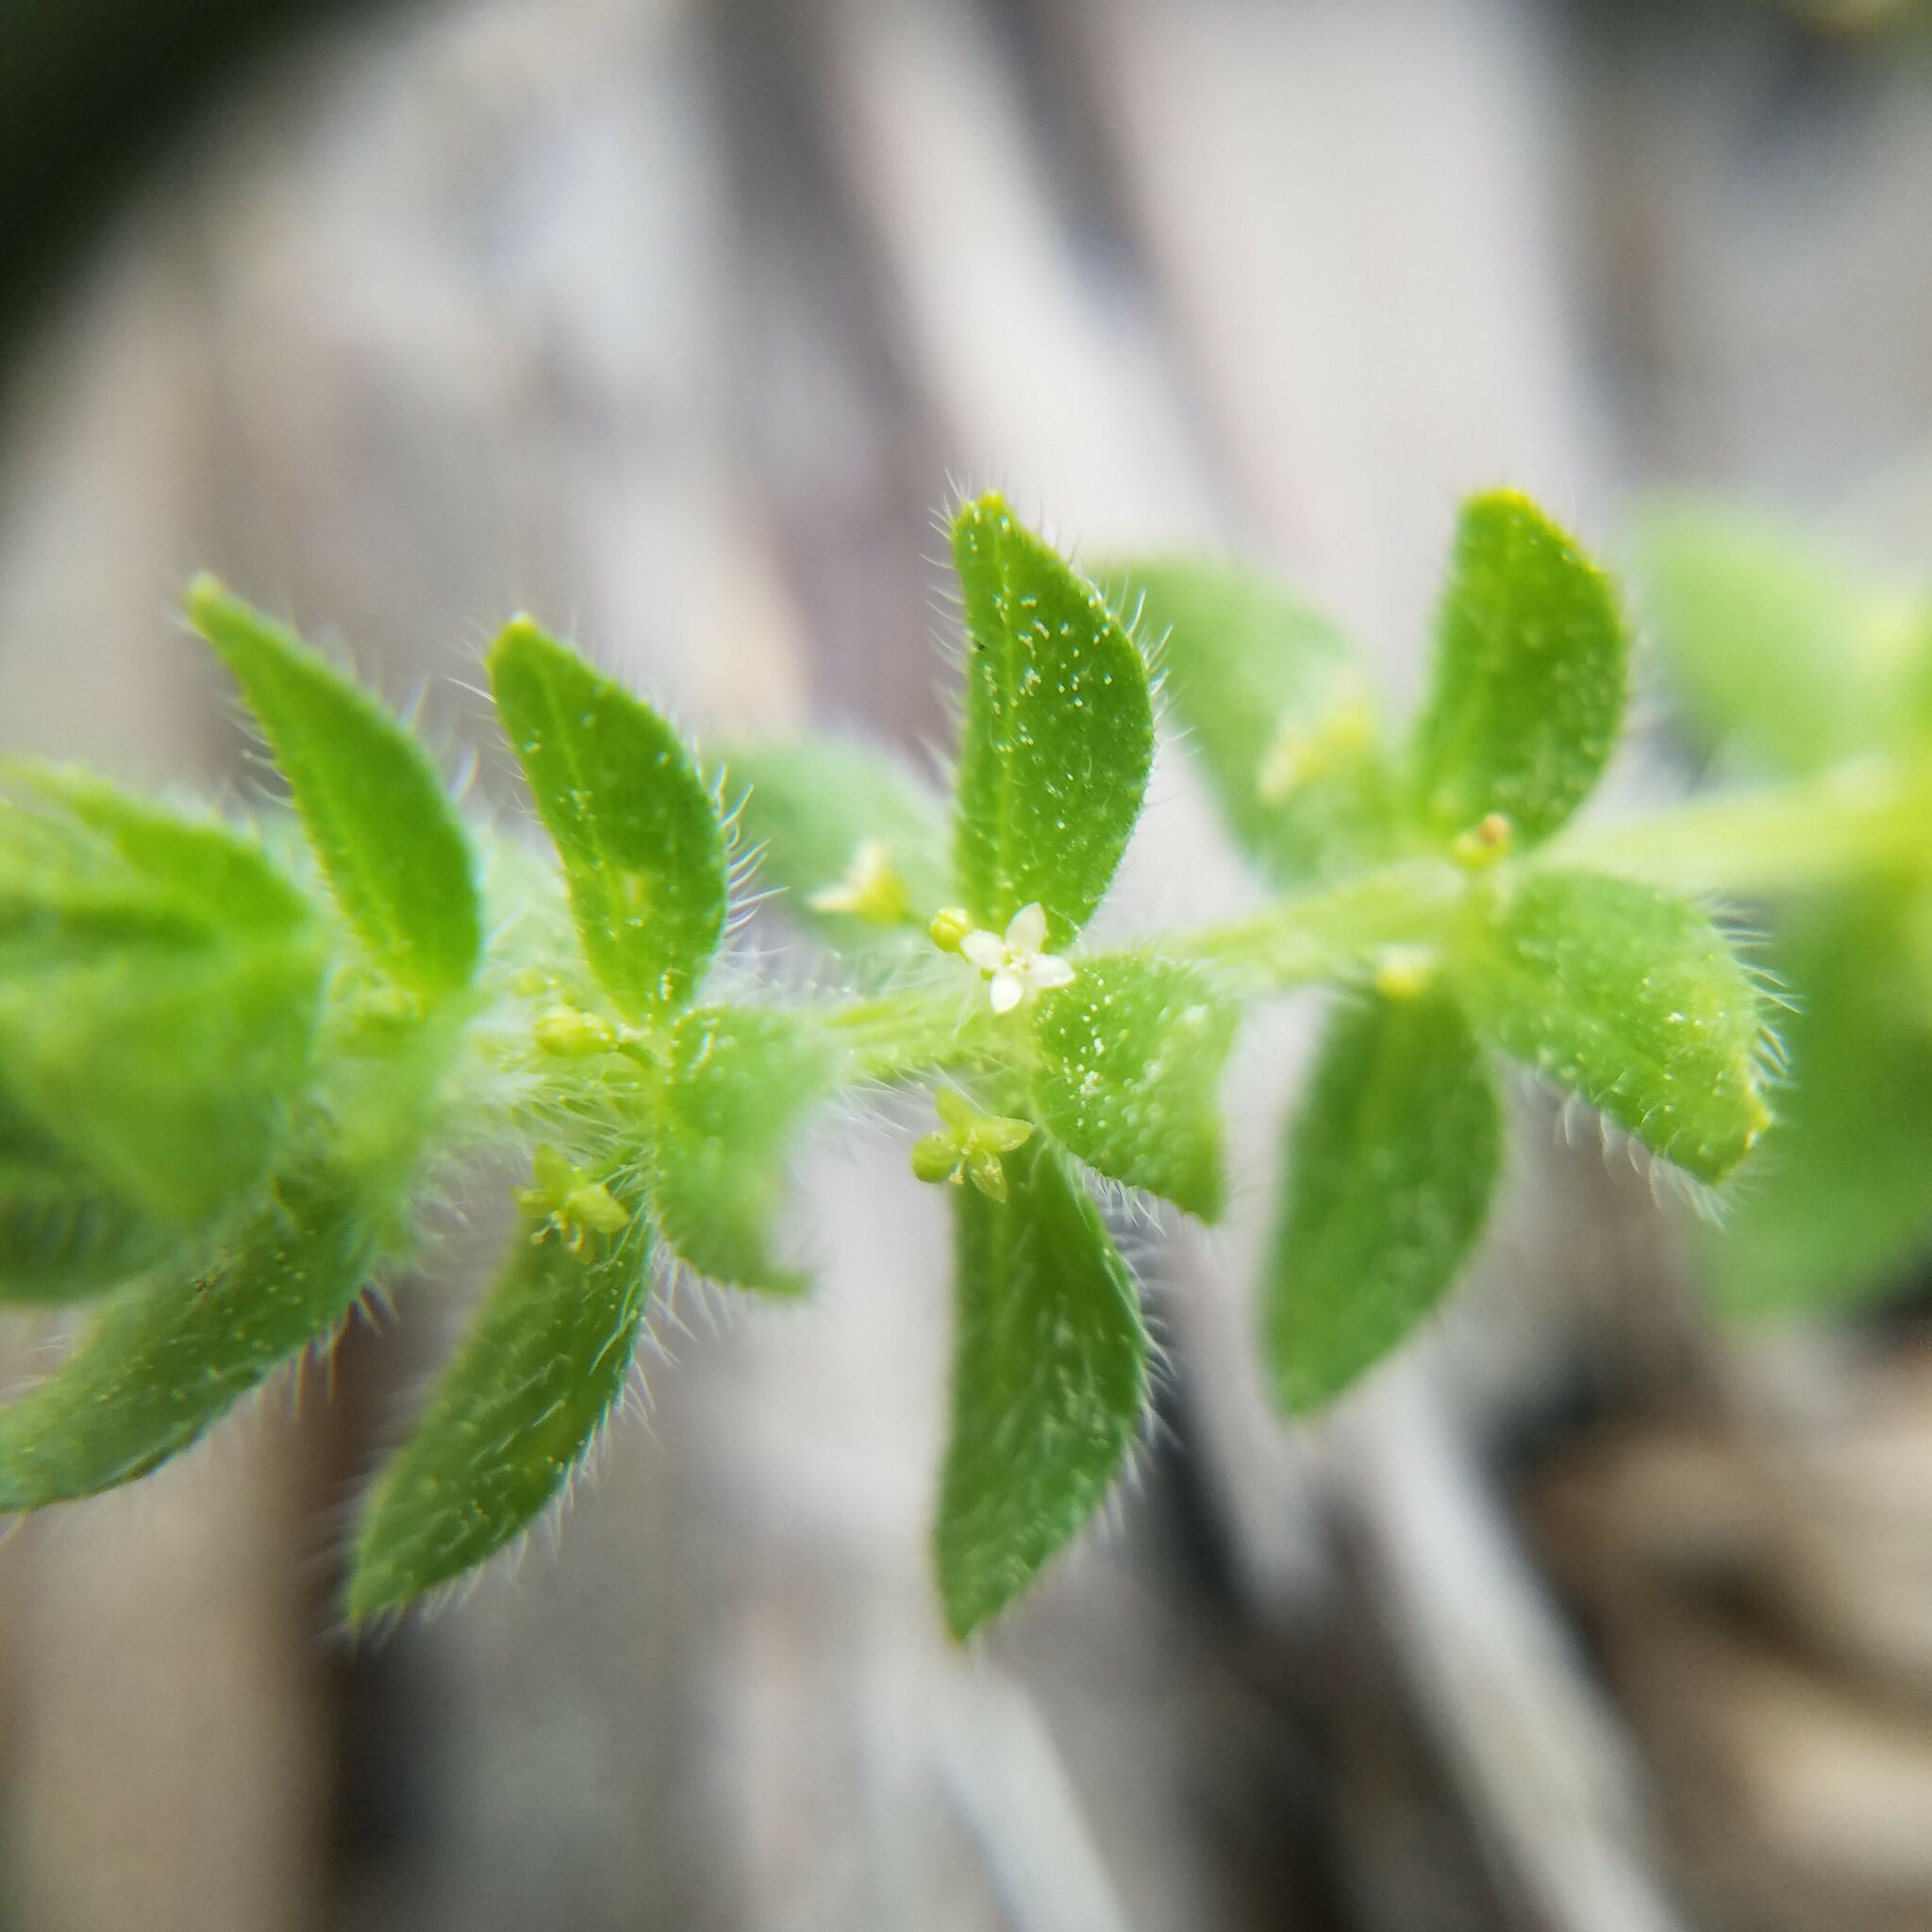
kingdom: Plantae
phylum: Tracheophyta
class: Magnoliopsida
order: Gentianales
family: Rubiaceae
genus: Cruciata
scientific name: Cruciata pedemontana
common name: Piedmont bedstraw
